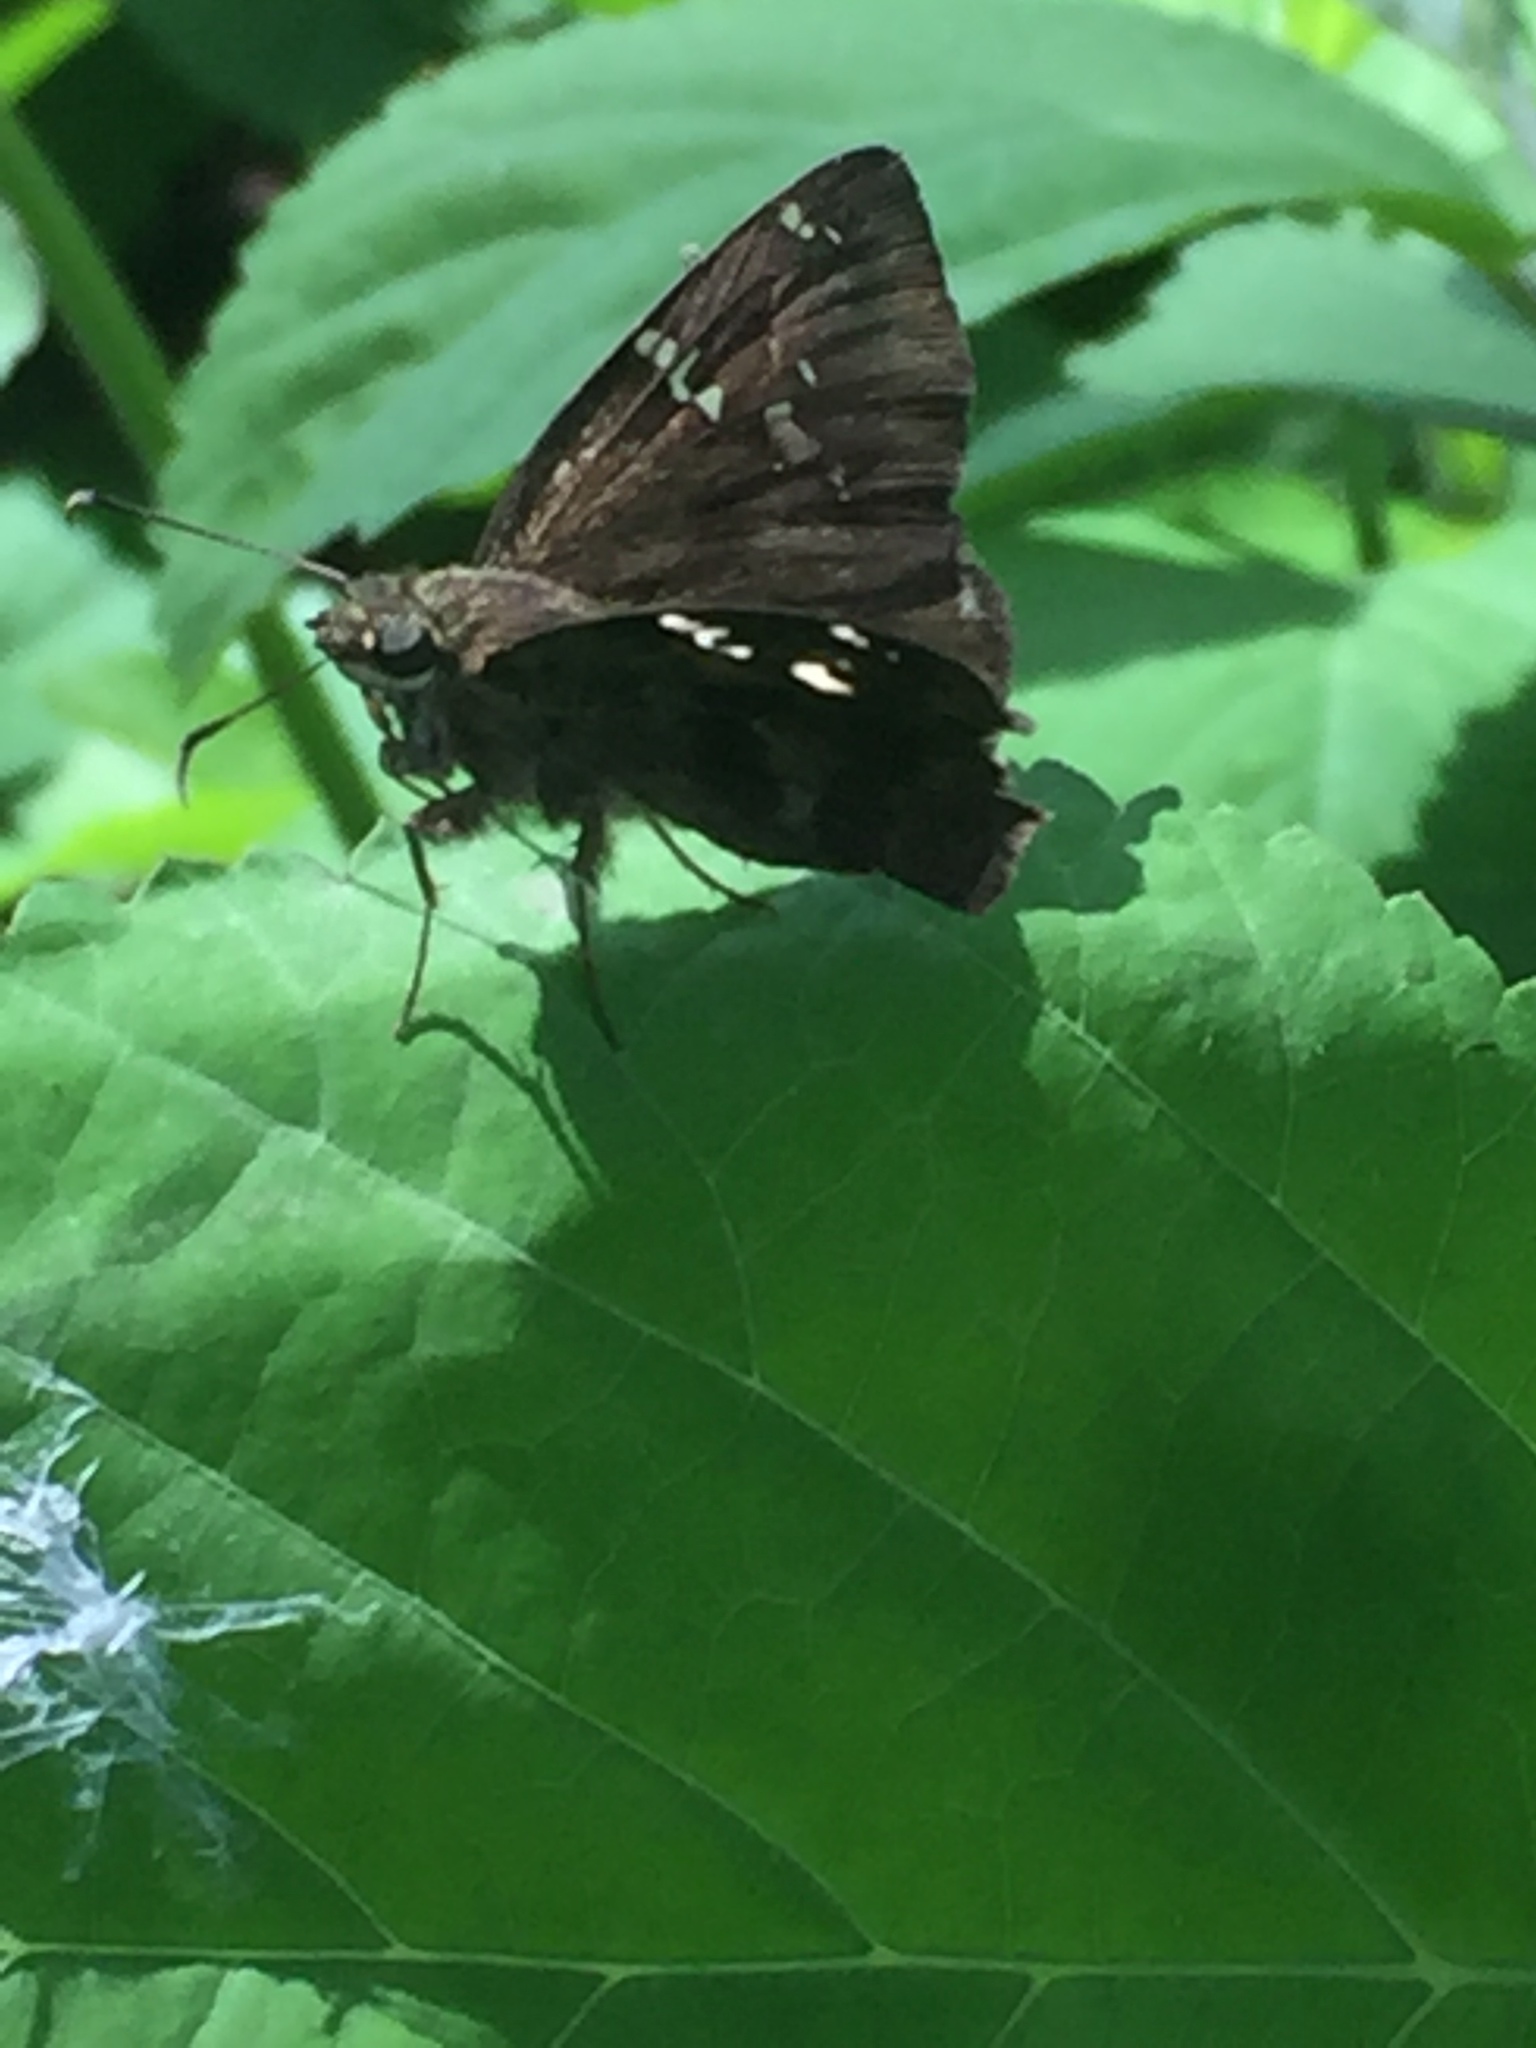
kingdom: Animalia
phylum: Arthropoda
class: Insecta
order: Lepidoptera
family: Hesperiidae
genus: Thorybes
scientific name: Thorybes
